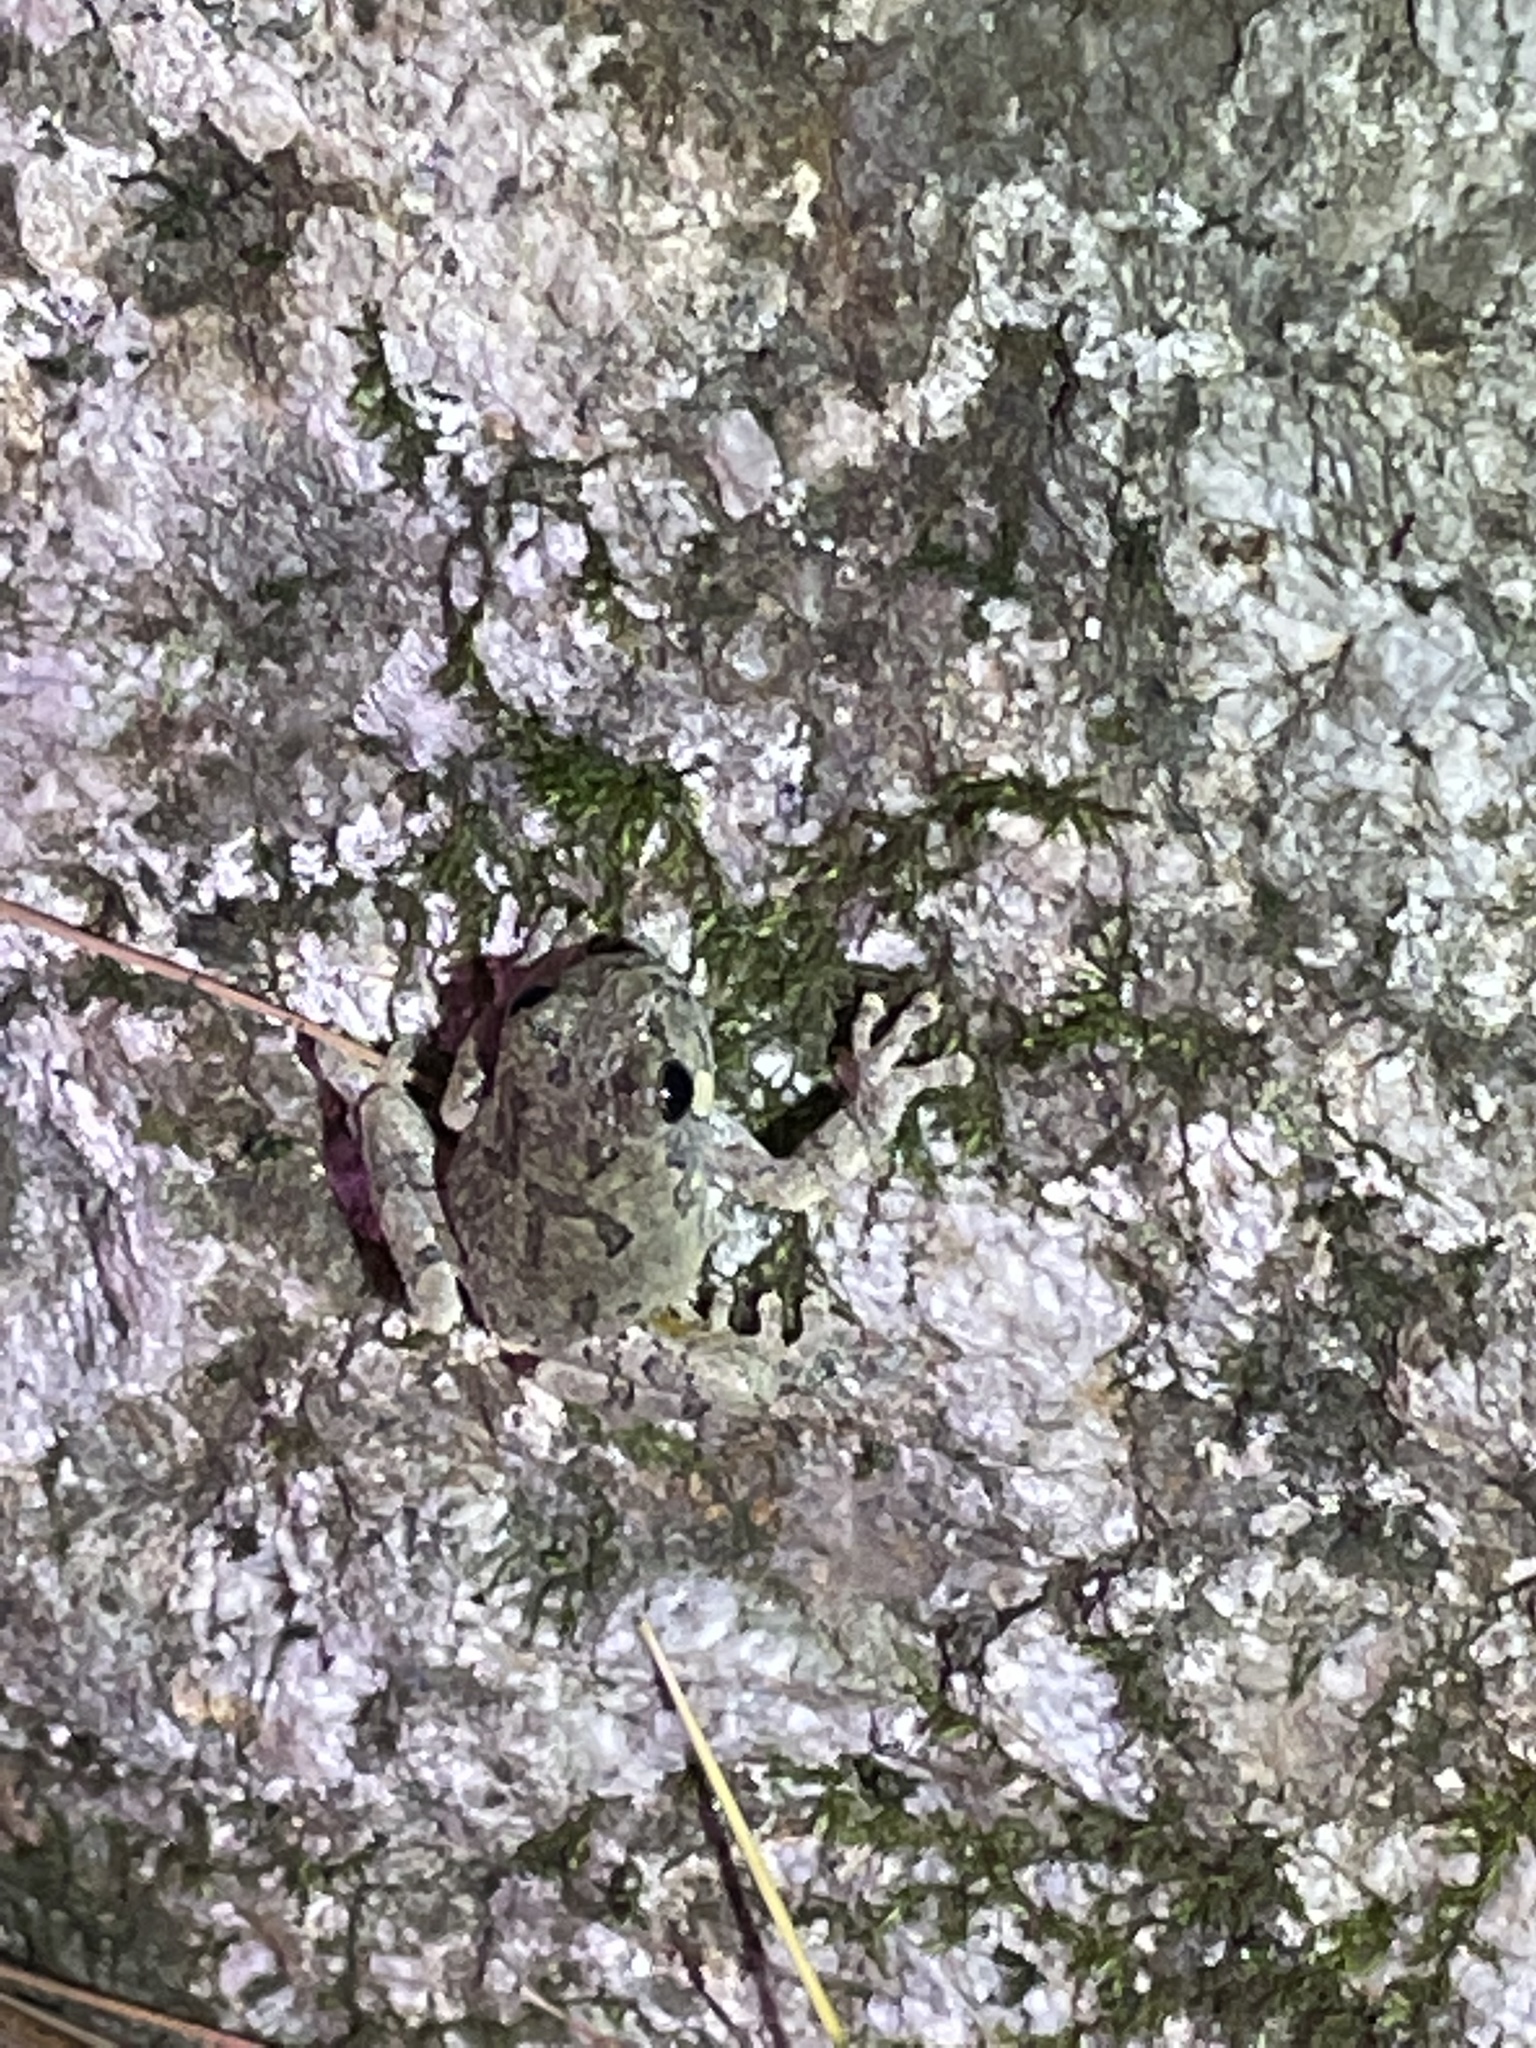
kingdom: Animalia
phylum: Chordata
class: Amphibia
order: Anura
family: Hylidae
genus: Dryophytes
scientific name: Dryophytes versicolor
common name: Gray treefrog
